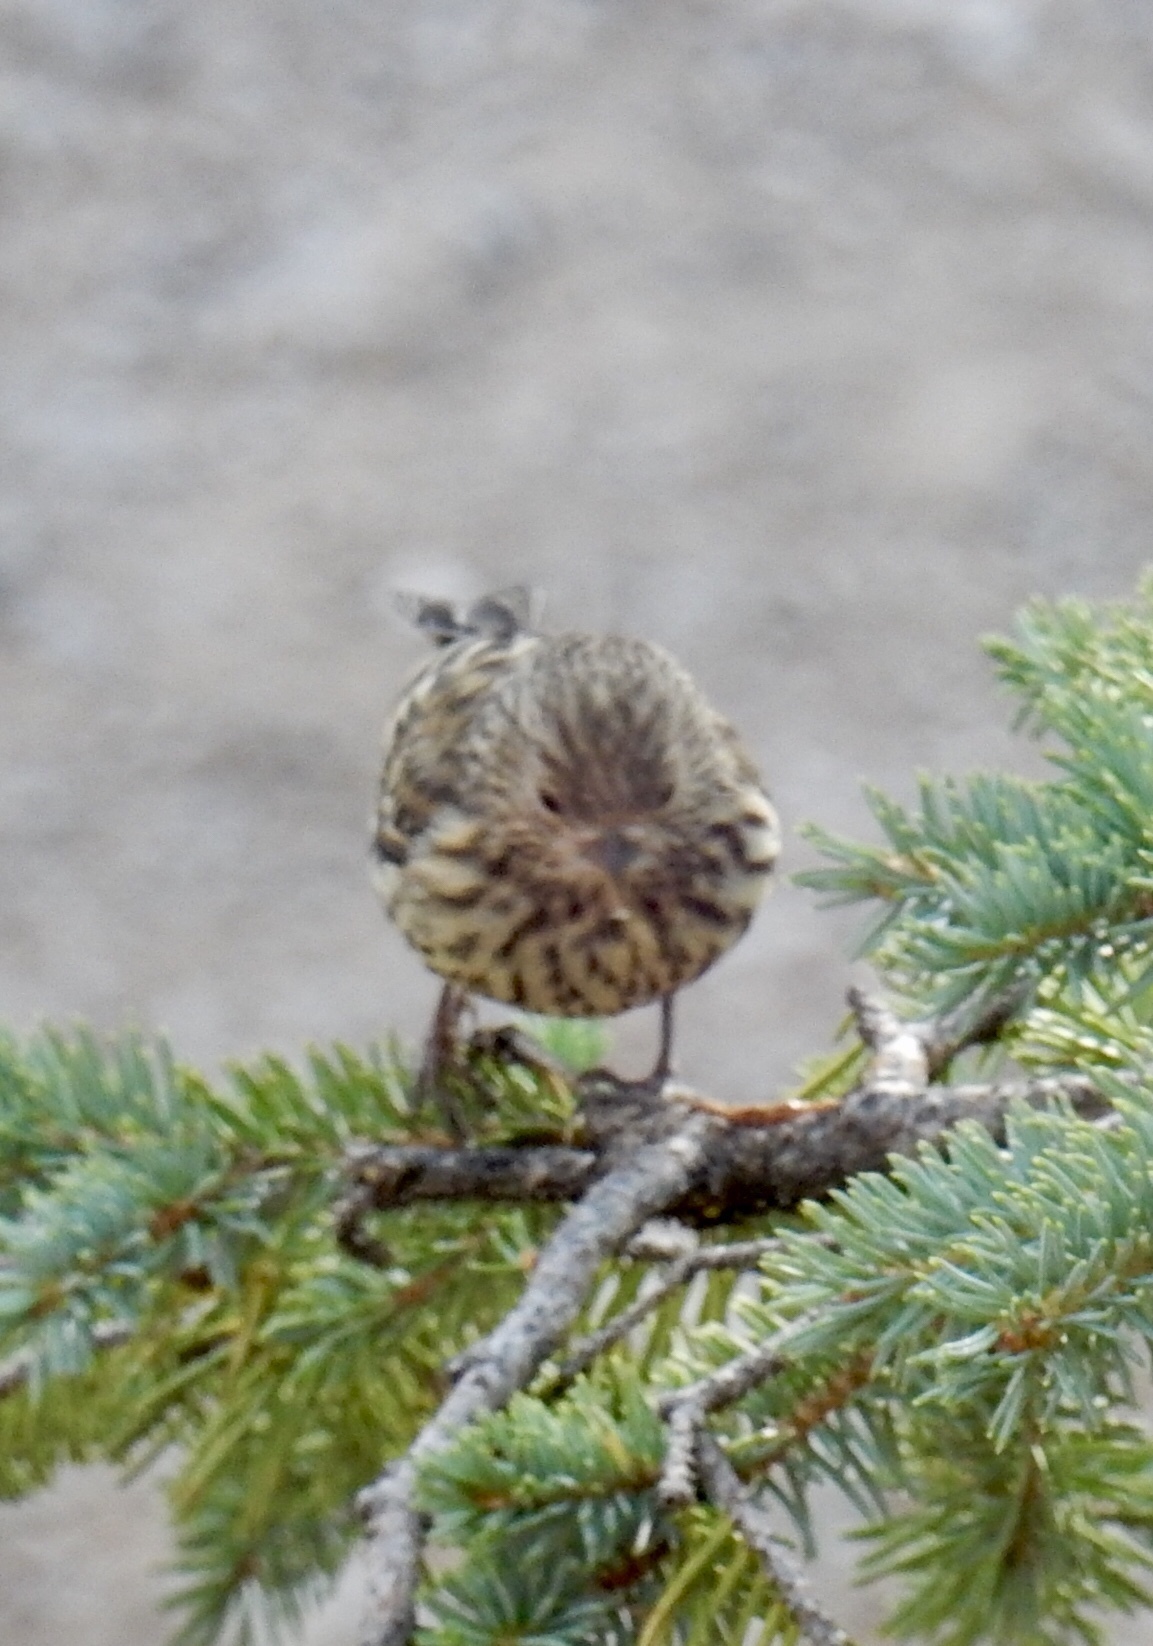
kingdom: Animalia
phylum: Chordata
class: Aves
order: Passeriformes
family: Fringillidae
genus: Spinus
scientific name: Spinus pinus
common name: Pine siskin
